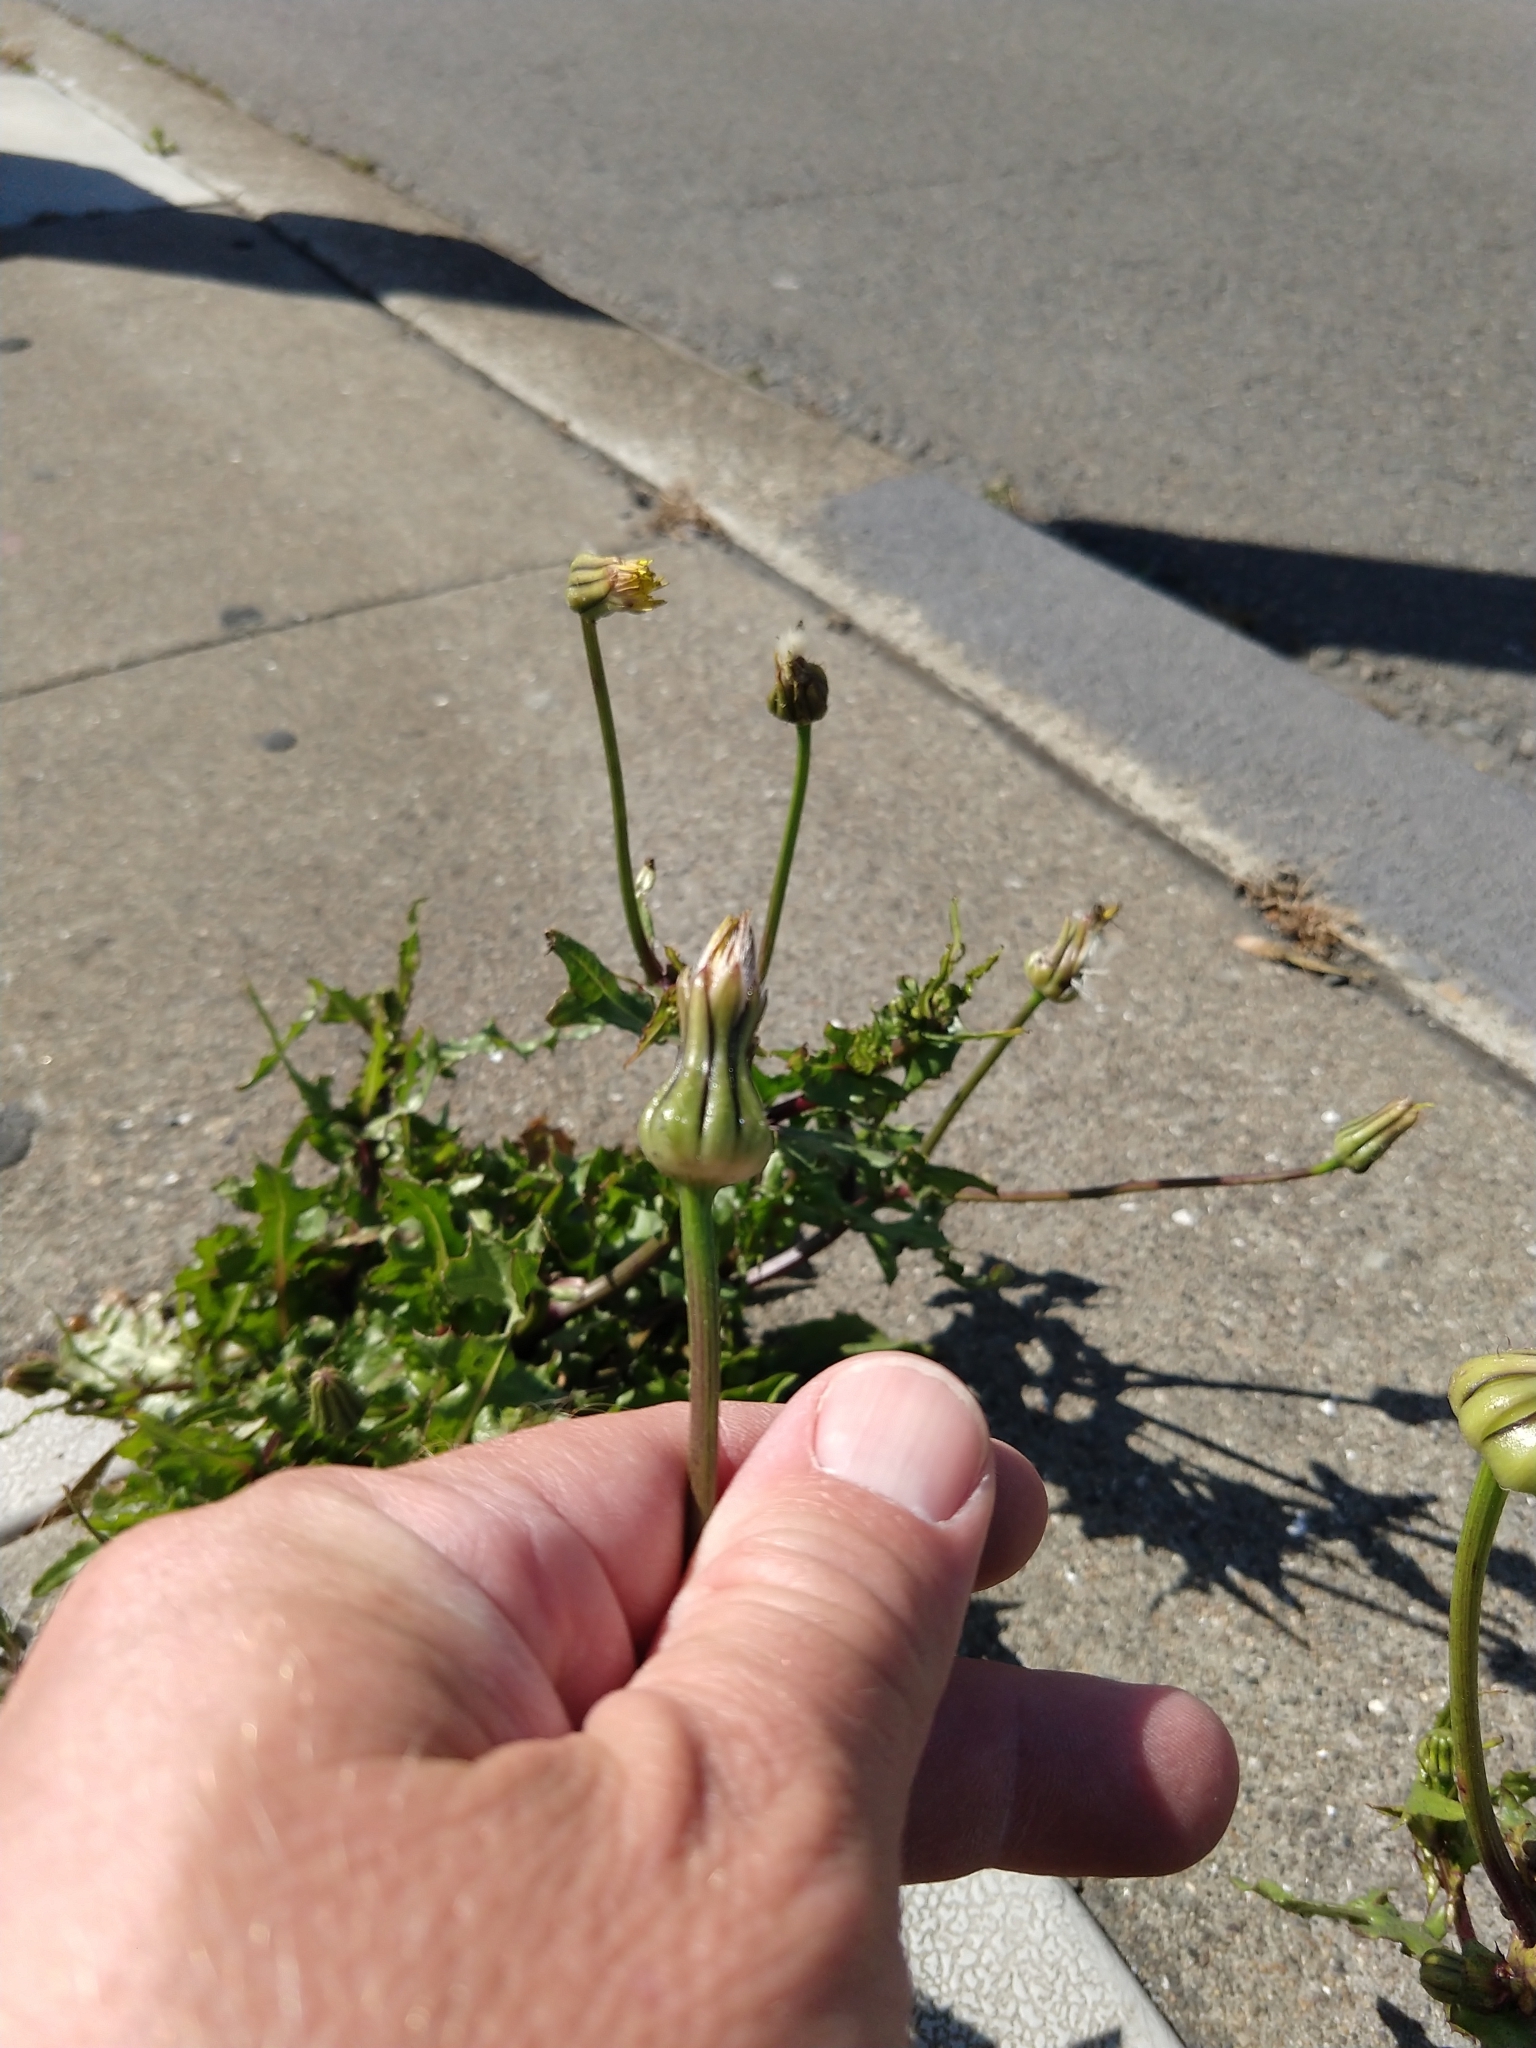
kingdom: Plantae
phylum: Tracheophyta
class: Magnoliopsida
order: Asterales
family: Asteraceae
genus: Urospermum
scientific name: Urospermum picroides
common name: False hawkbit
